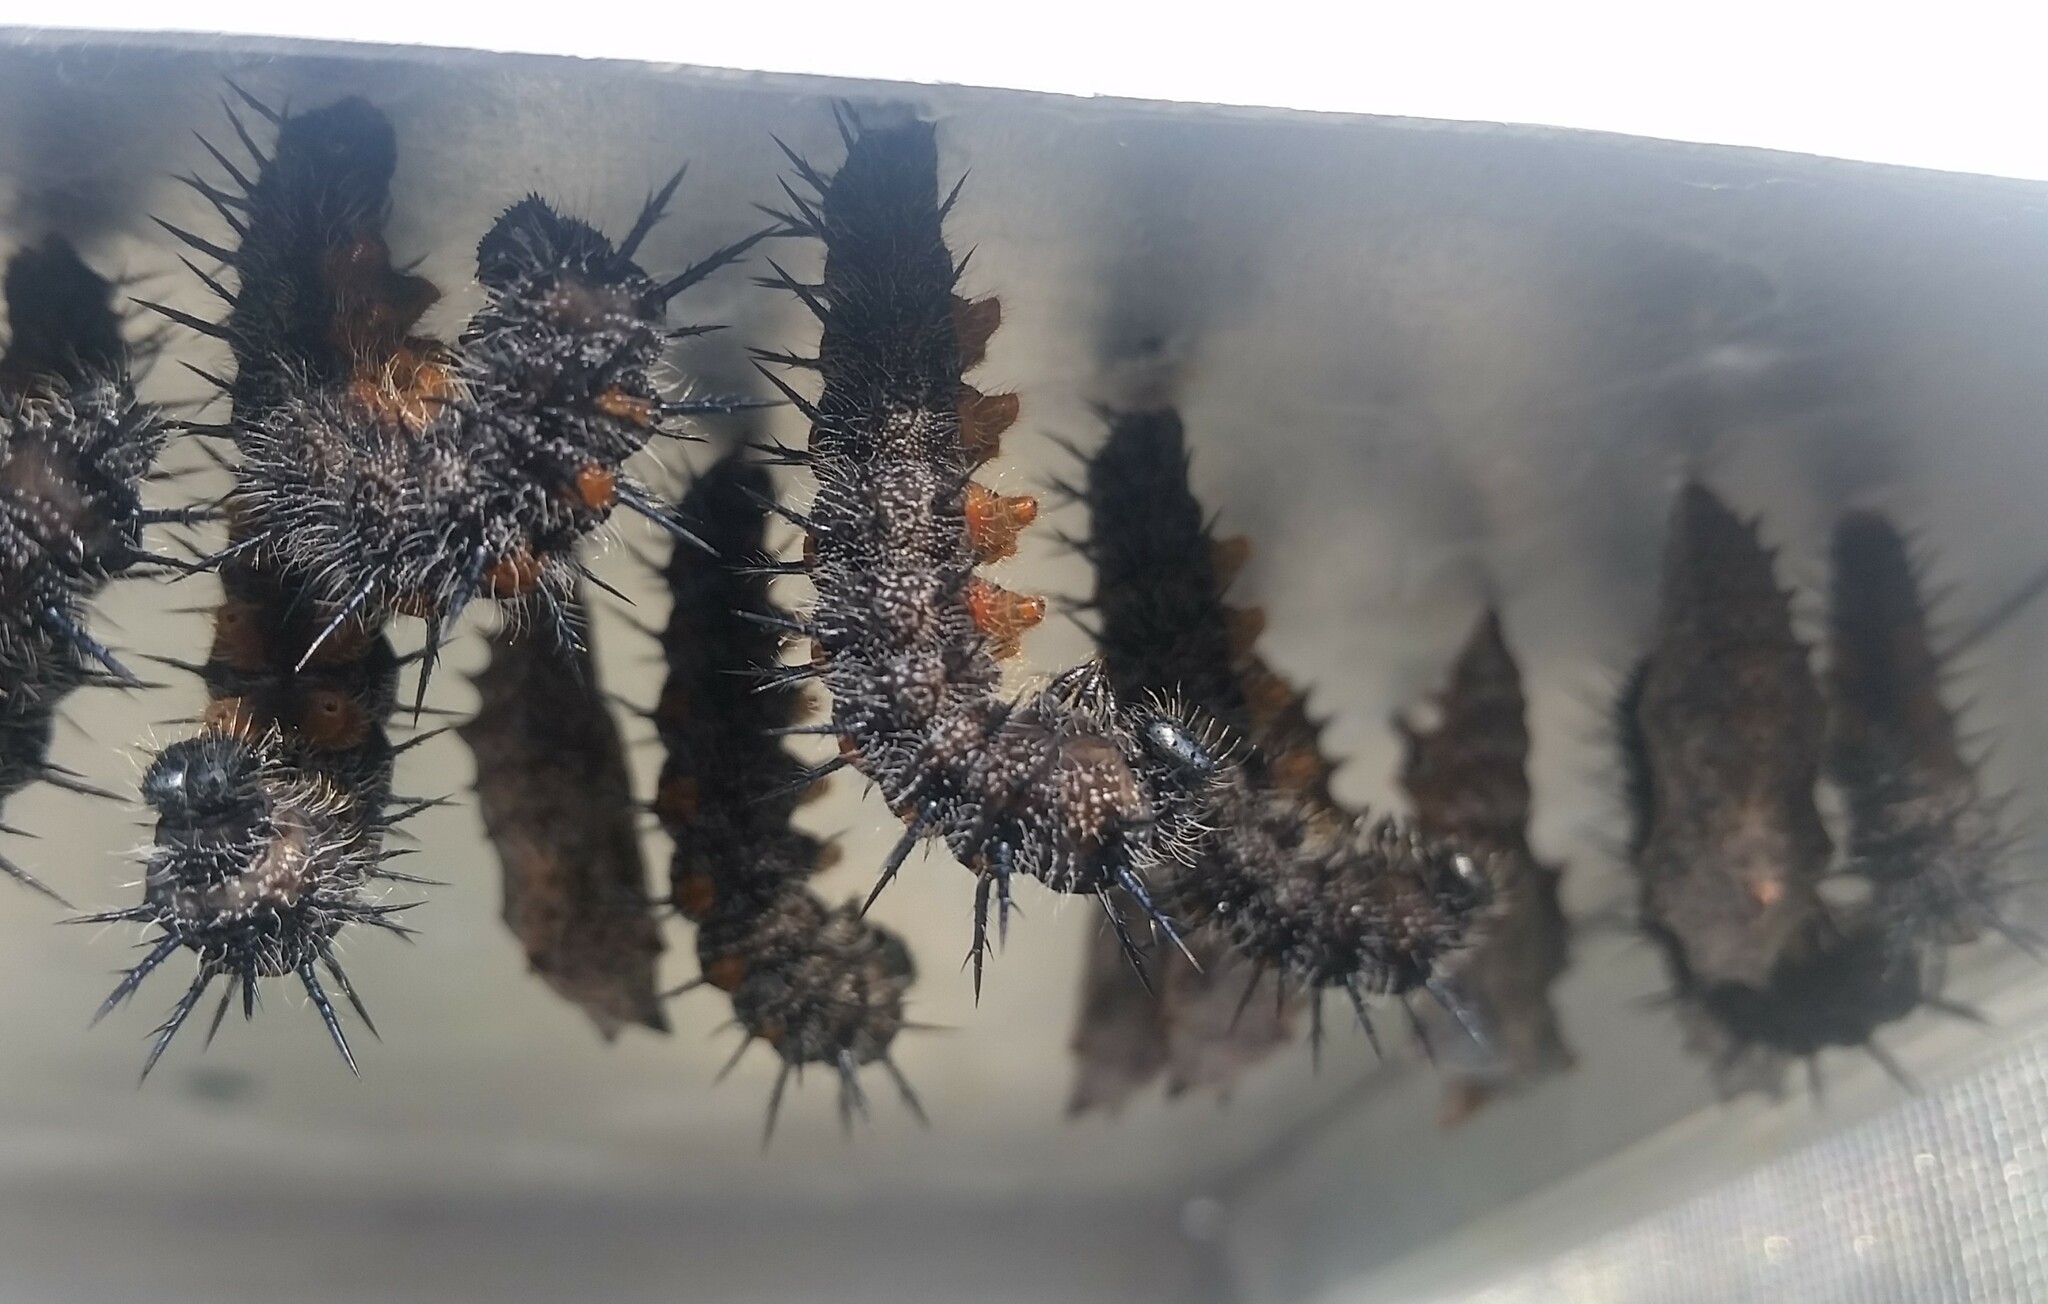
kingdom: Animalia
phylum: Arthropoda
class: Insecta
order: Lepidoptera
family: Nymphalidae
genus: Nymphalis
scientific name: Nymphalis antiopa
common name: Camberwell beauty
